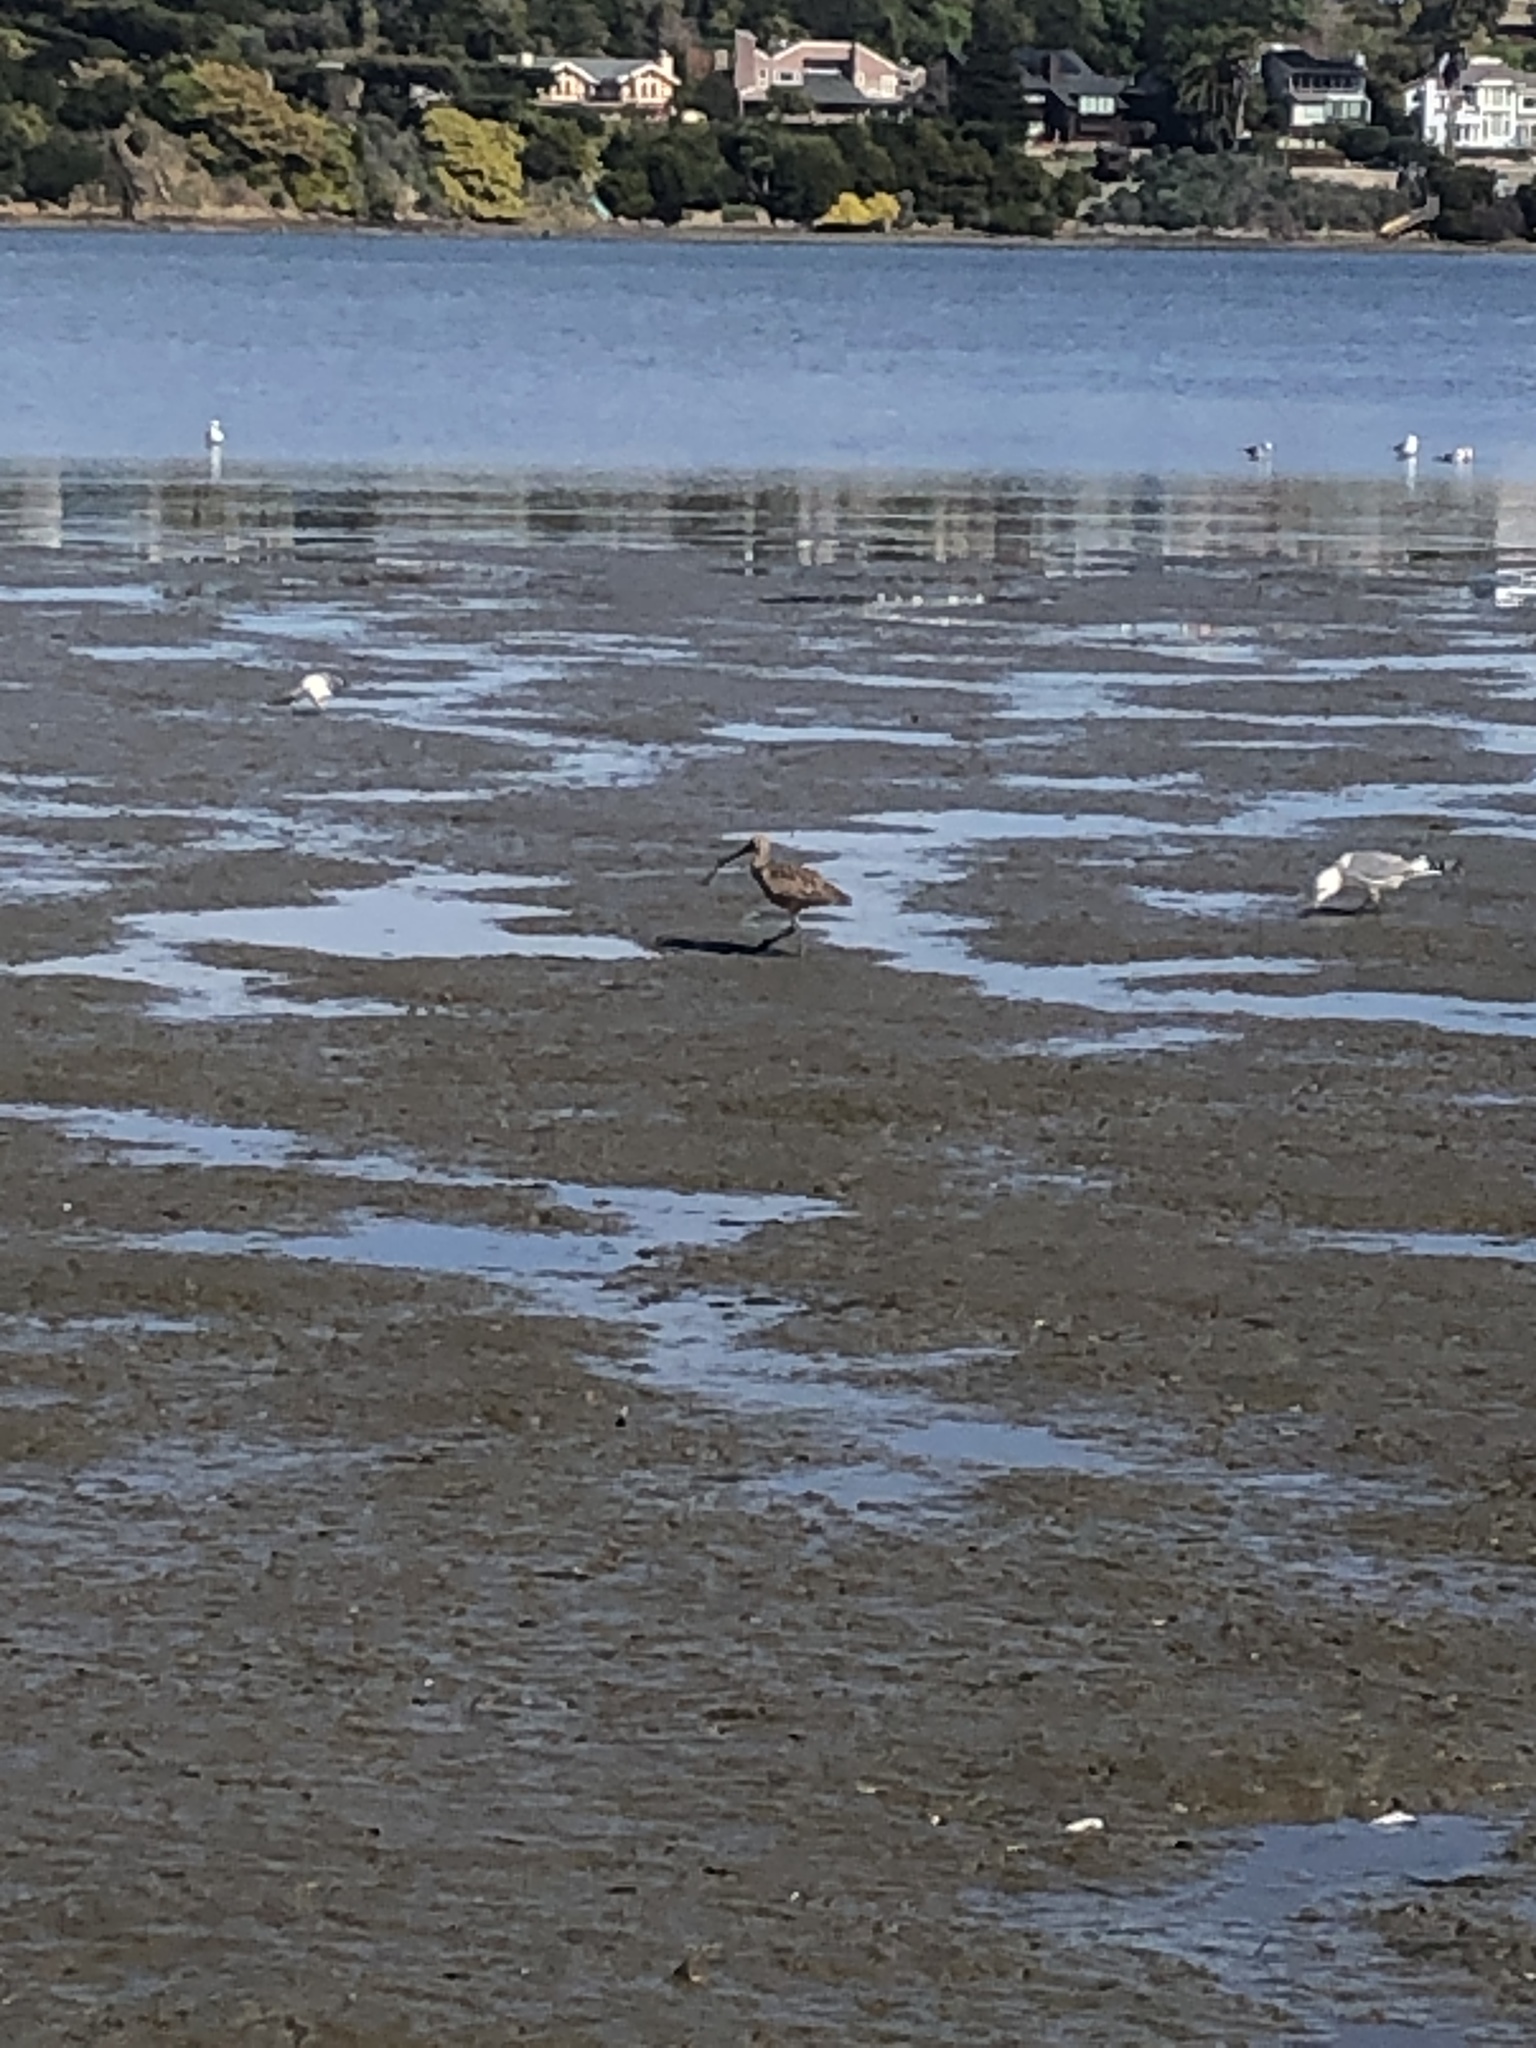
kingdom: Animalia
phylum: Chordata
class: Aves
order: Charadriiformes
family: Scolopacidae
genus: Numenius
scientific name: Numenius americanus
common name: Long-billed curlew
